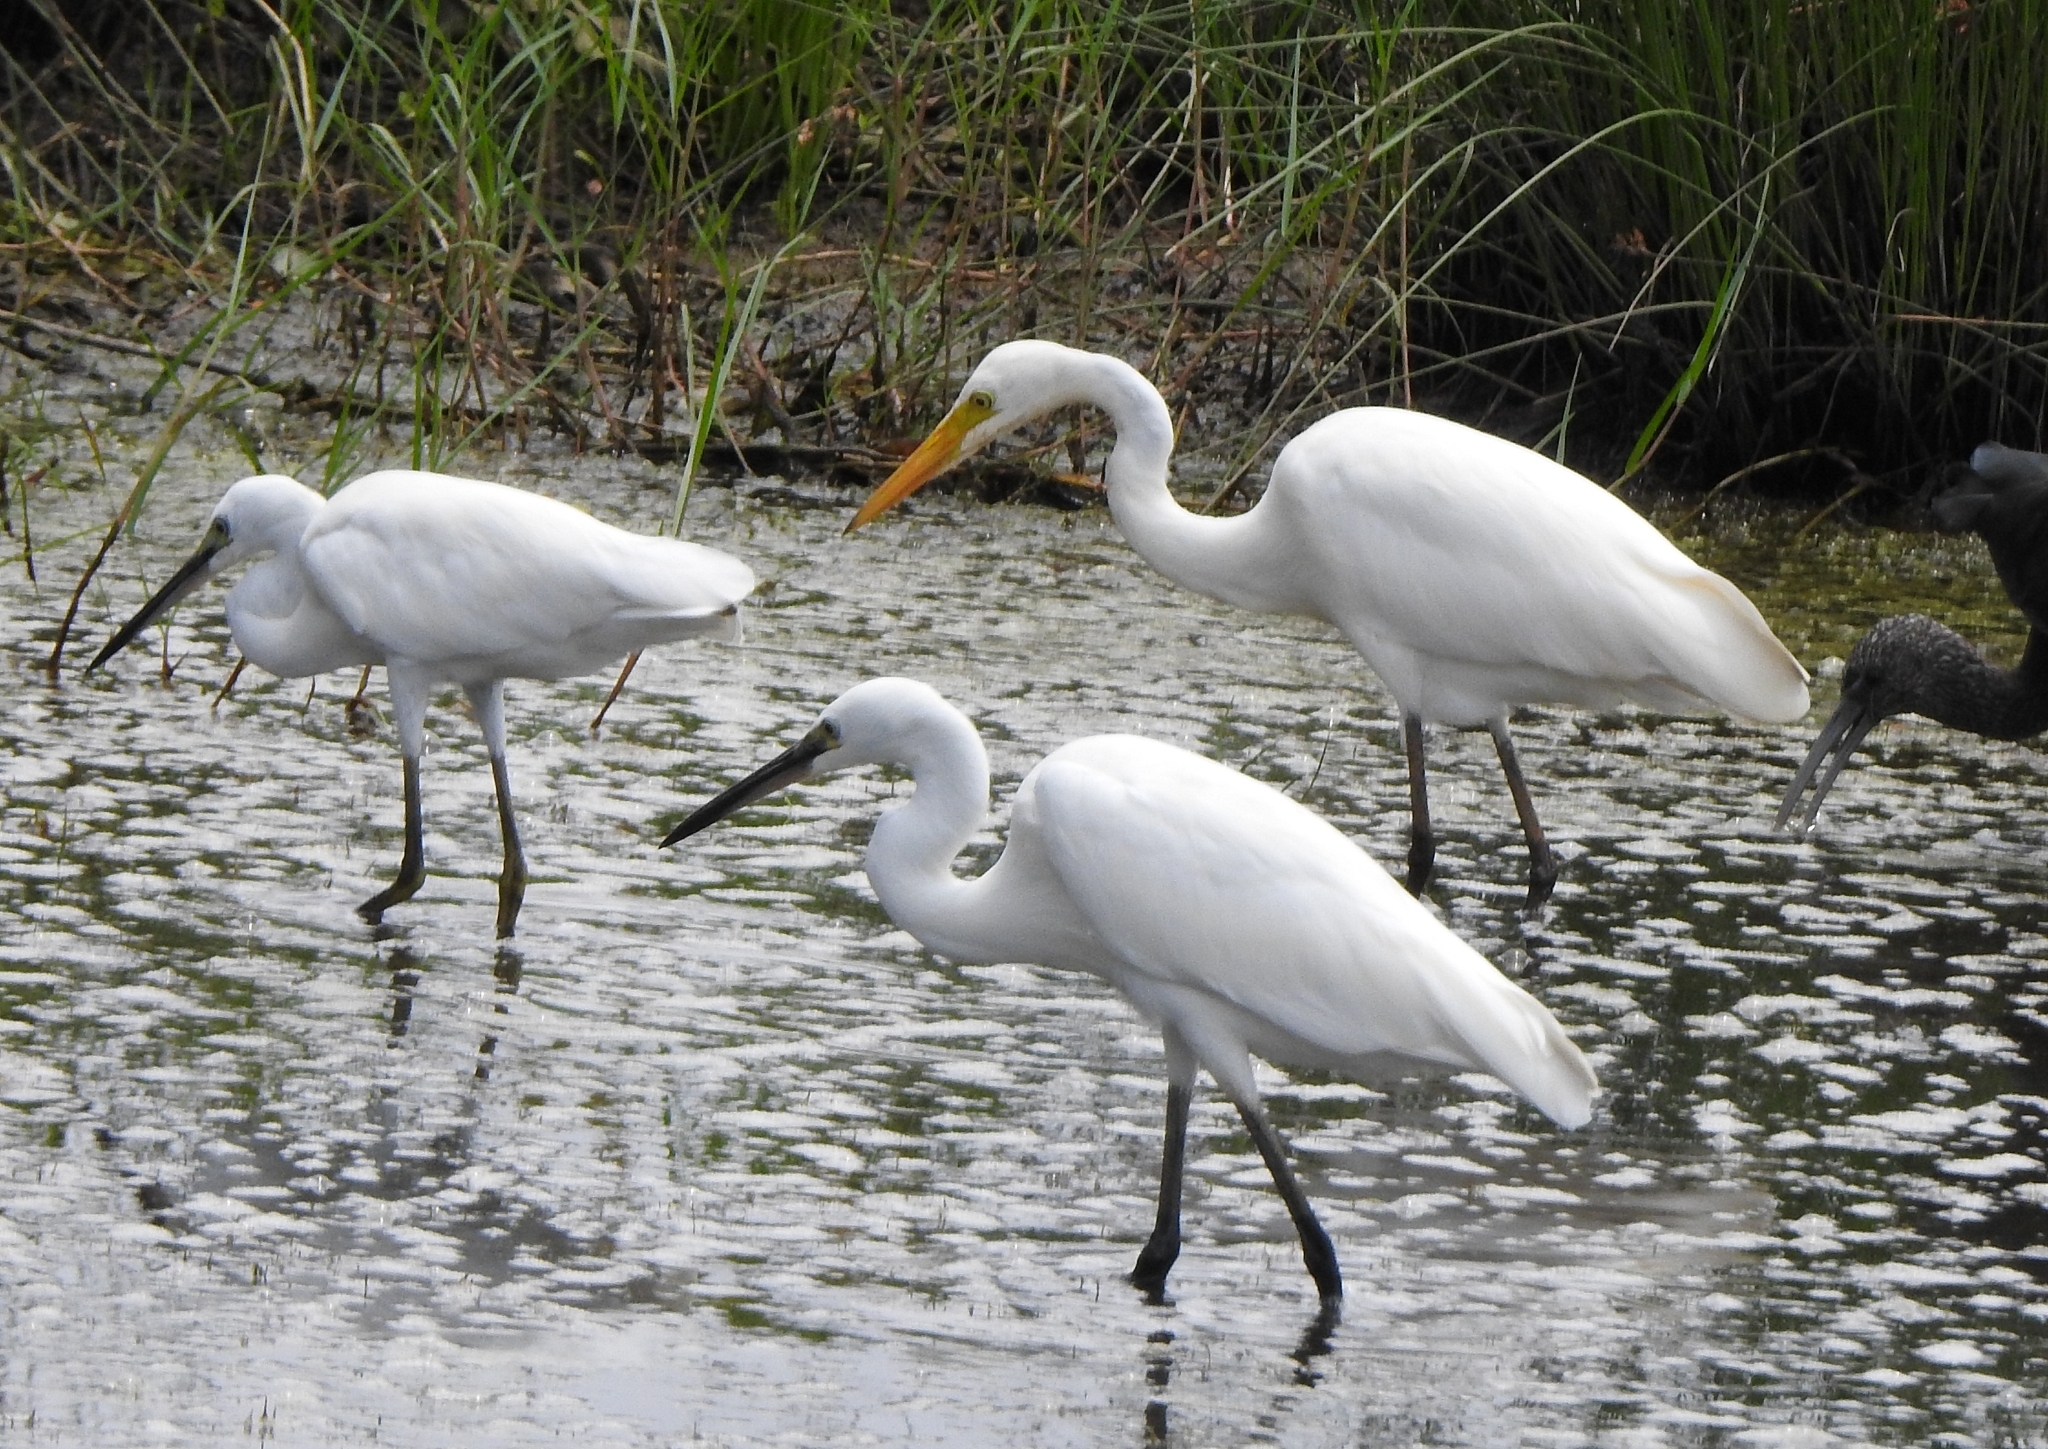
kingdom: Animalia
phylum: Chordata
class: Aves
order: Pelecaniformes
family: Ardeidae
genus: Ardea
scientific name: Ardea alba
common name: Great egret
